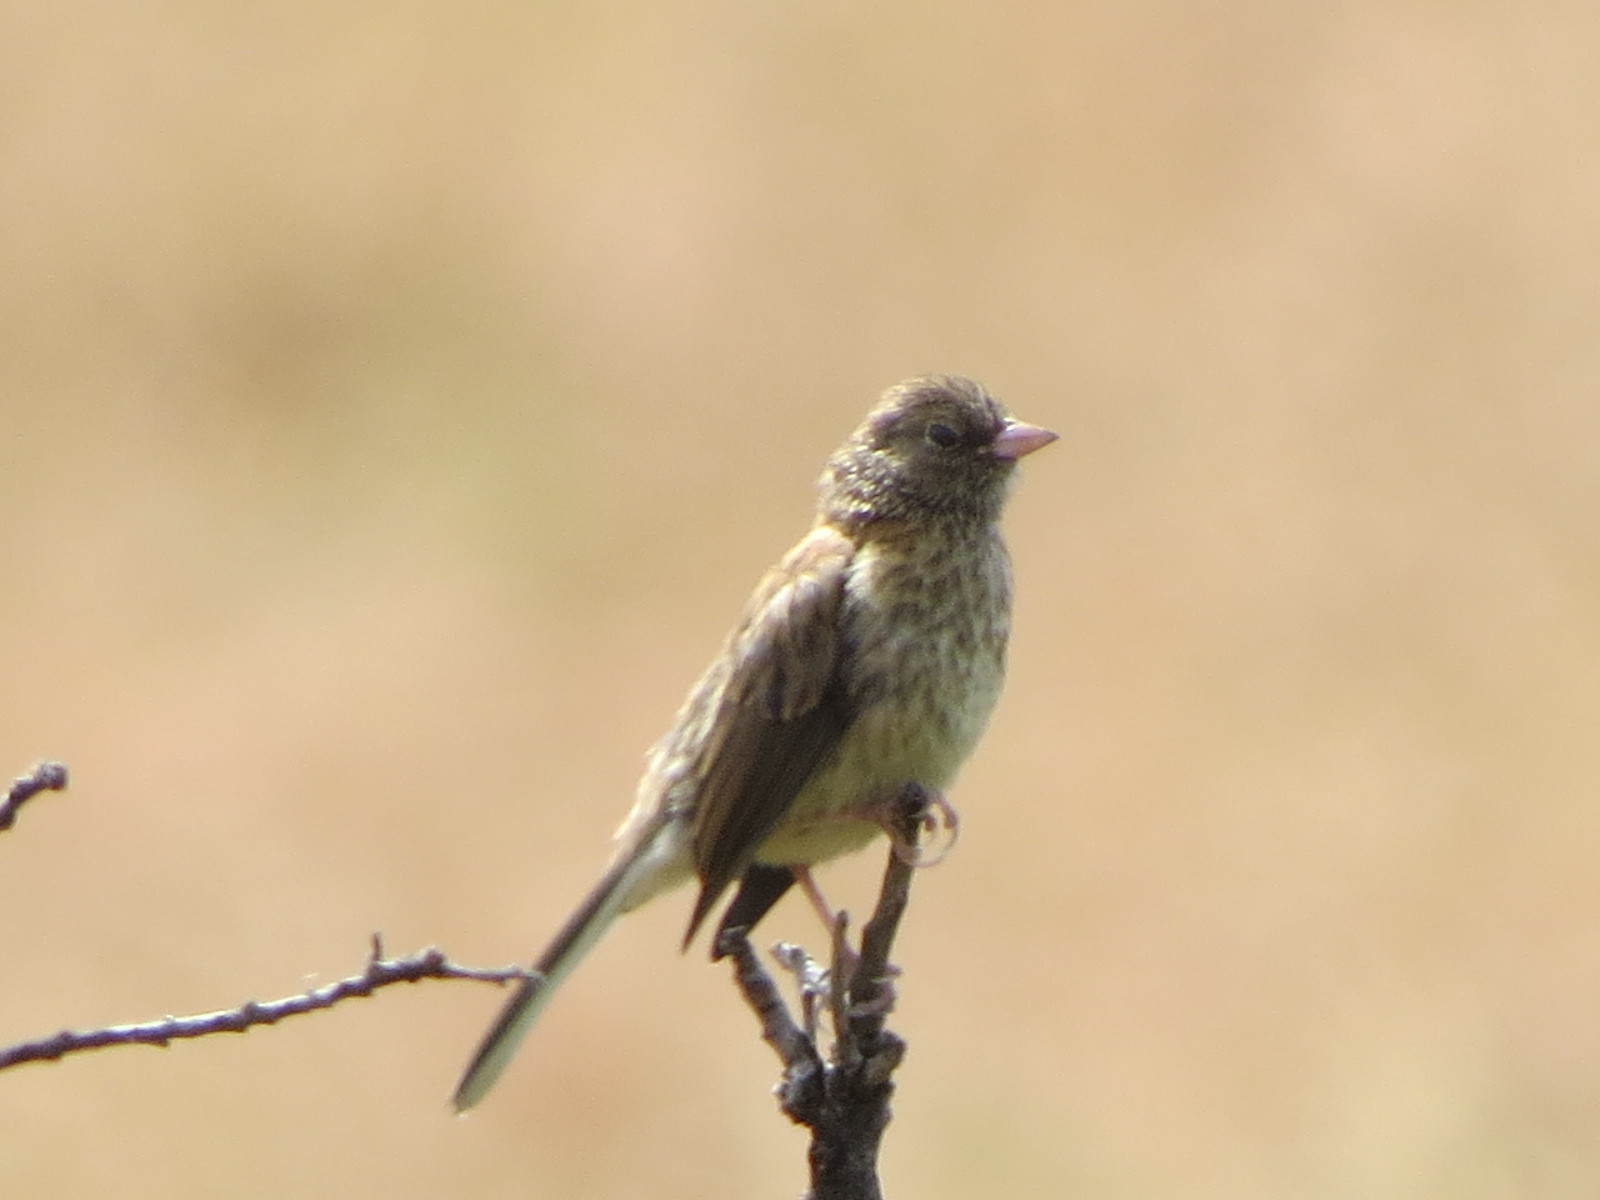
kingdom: Animalia
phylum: Chordata
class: Aves
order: Passeriformes
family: Passerellidae
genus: Junco
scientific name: Junco hyemalis
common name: Dark-eyed junco
